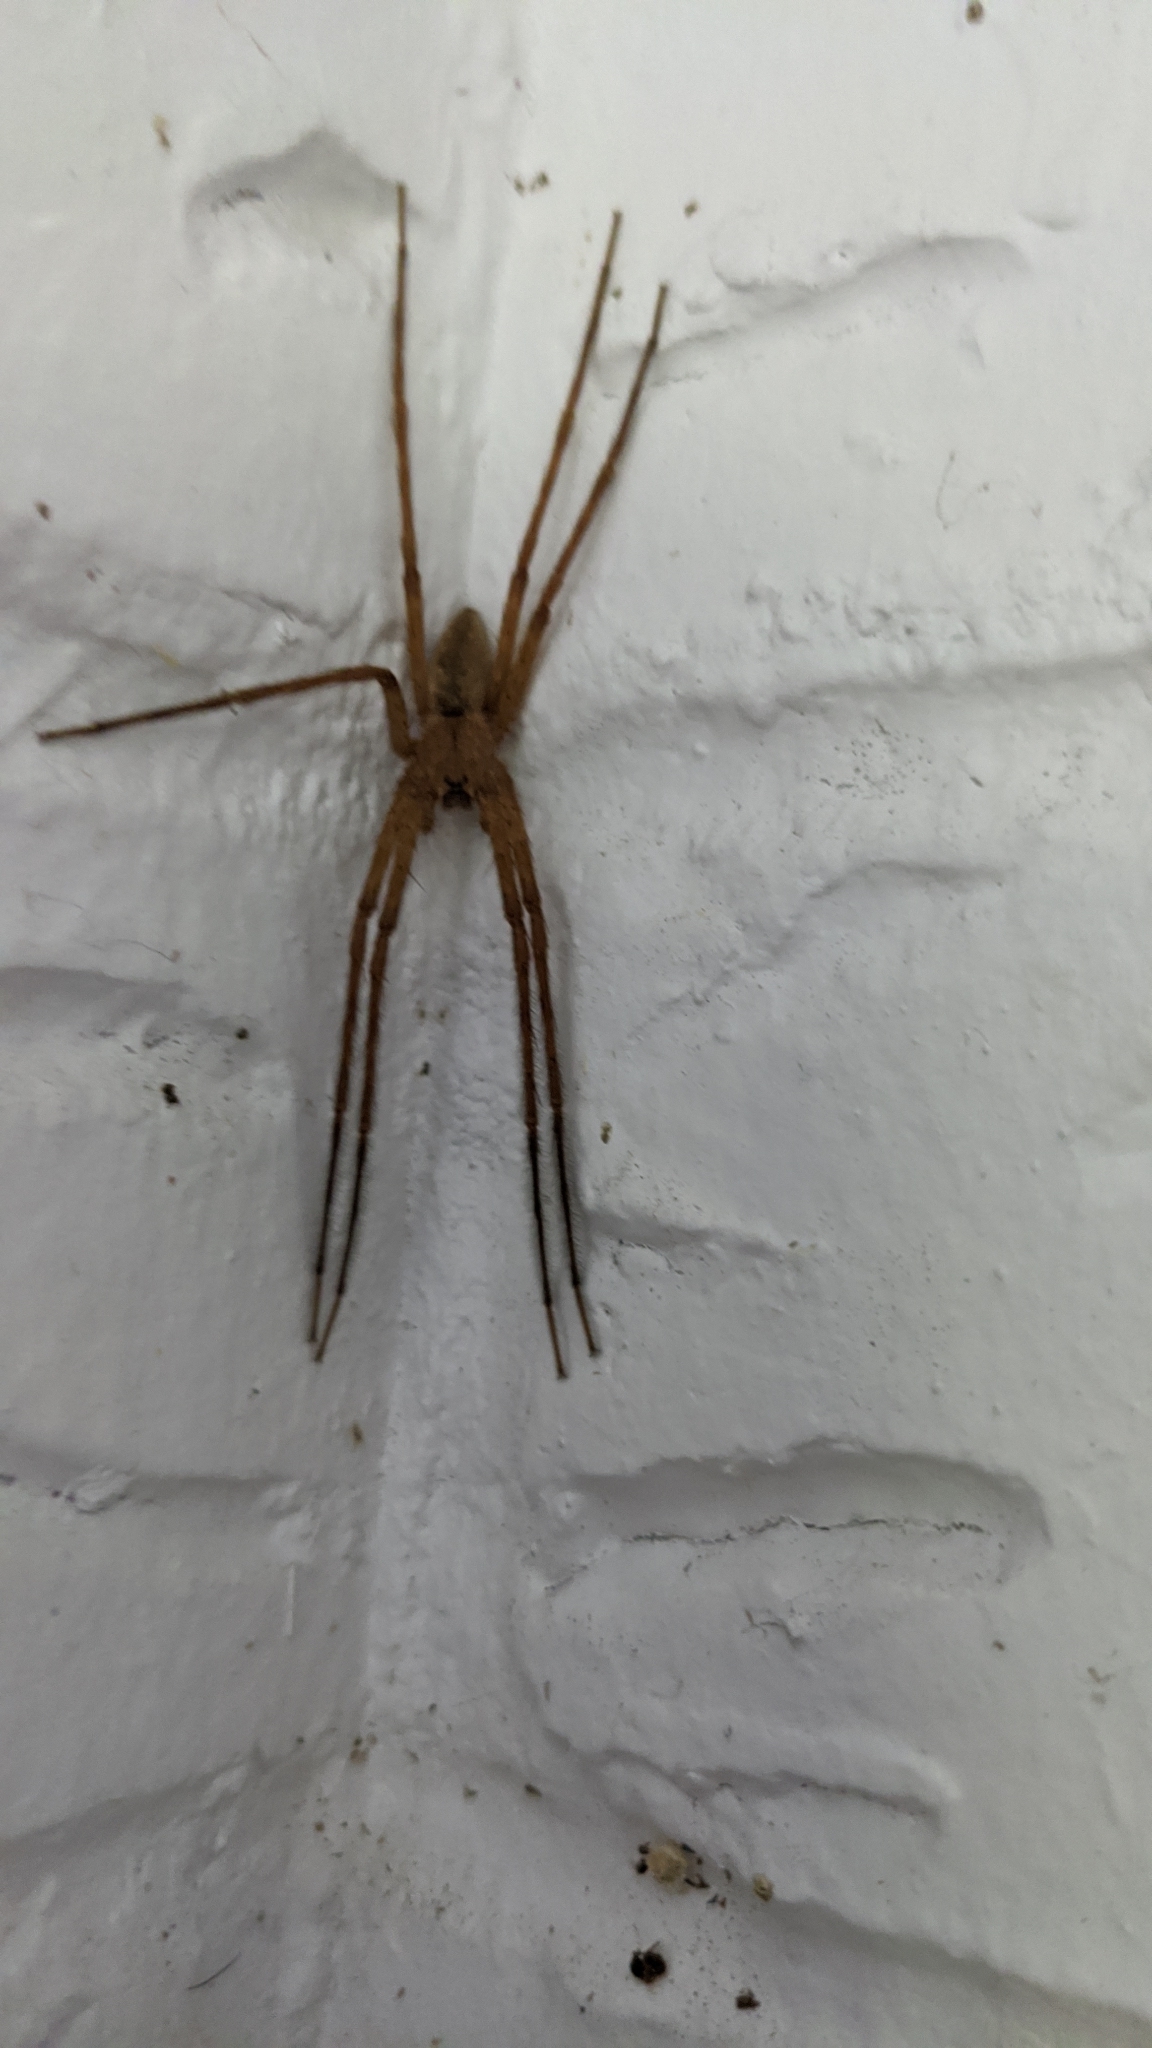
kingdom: Animalia
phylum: Arthropoda
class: Arachnida
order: Araneae
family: Pisauridae
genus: Pisaurina
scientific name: Pisaurina mira
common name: American nursery web spider
